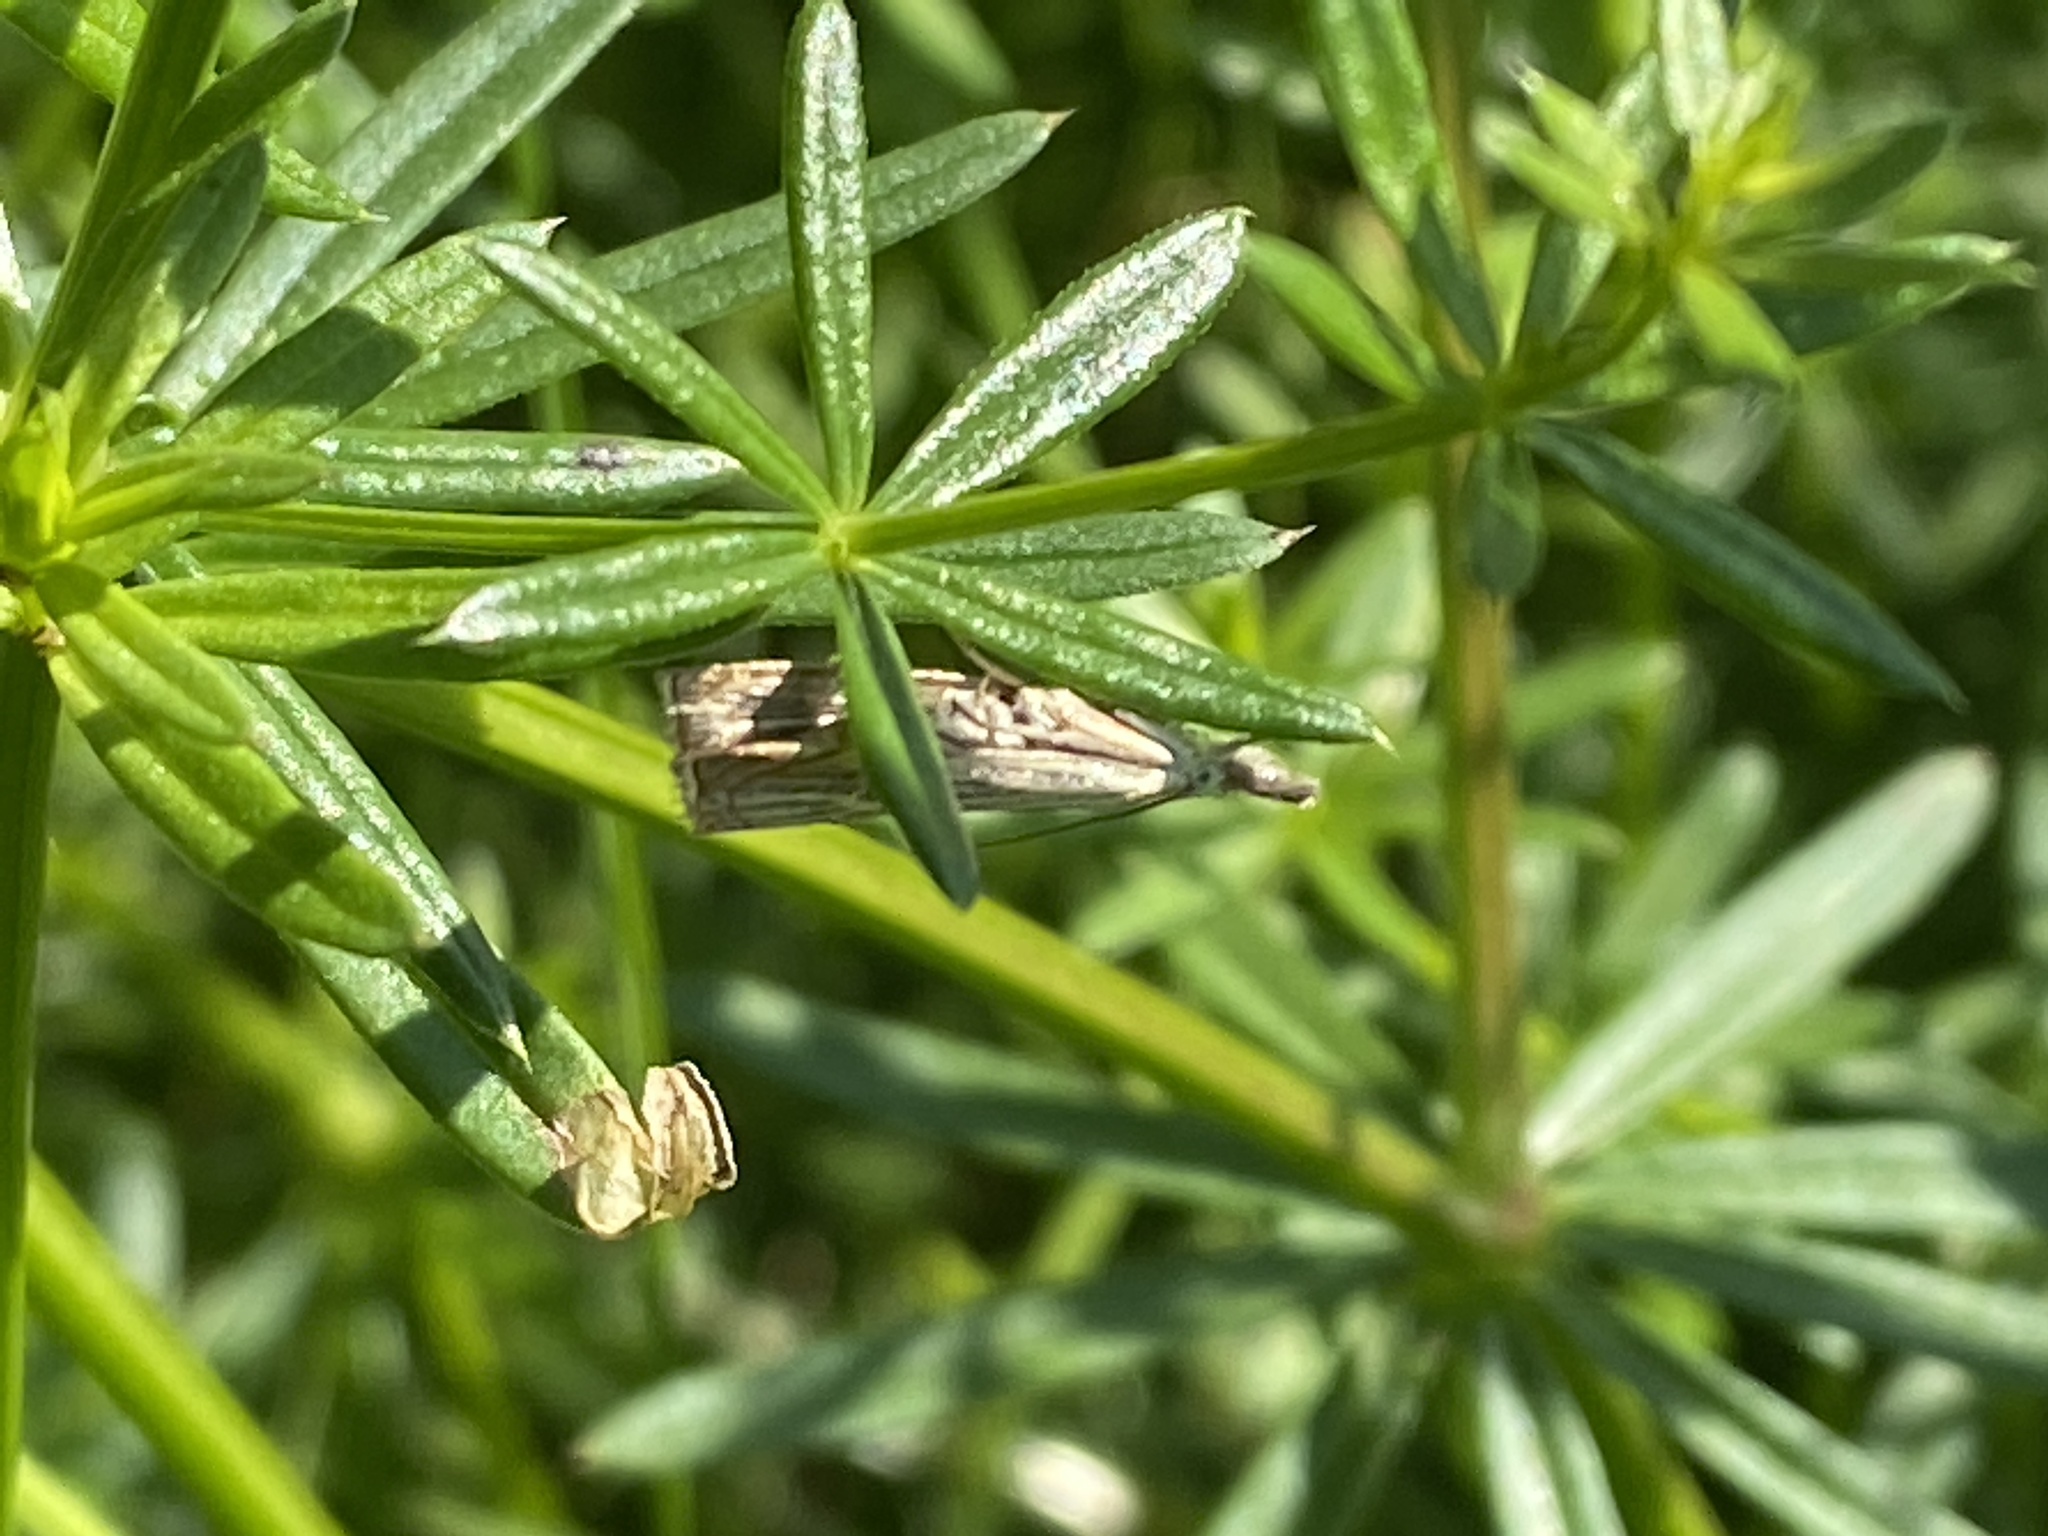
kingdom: Animalia
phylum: Arthropoda
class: Insecta
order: Lepidoptera
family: Crambidae
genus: Chrysoteuchia
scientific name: Chrysoteuchia culmella
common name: Garden grass-veneer
